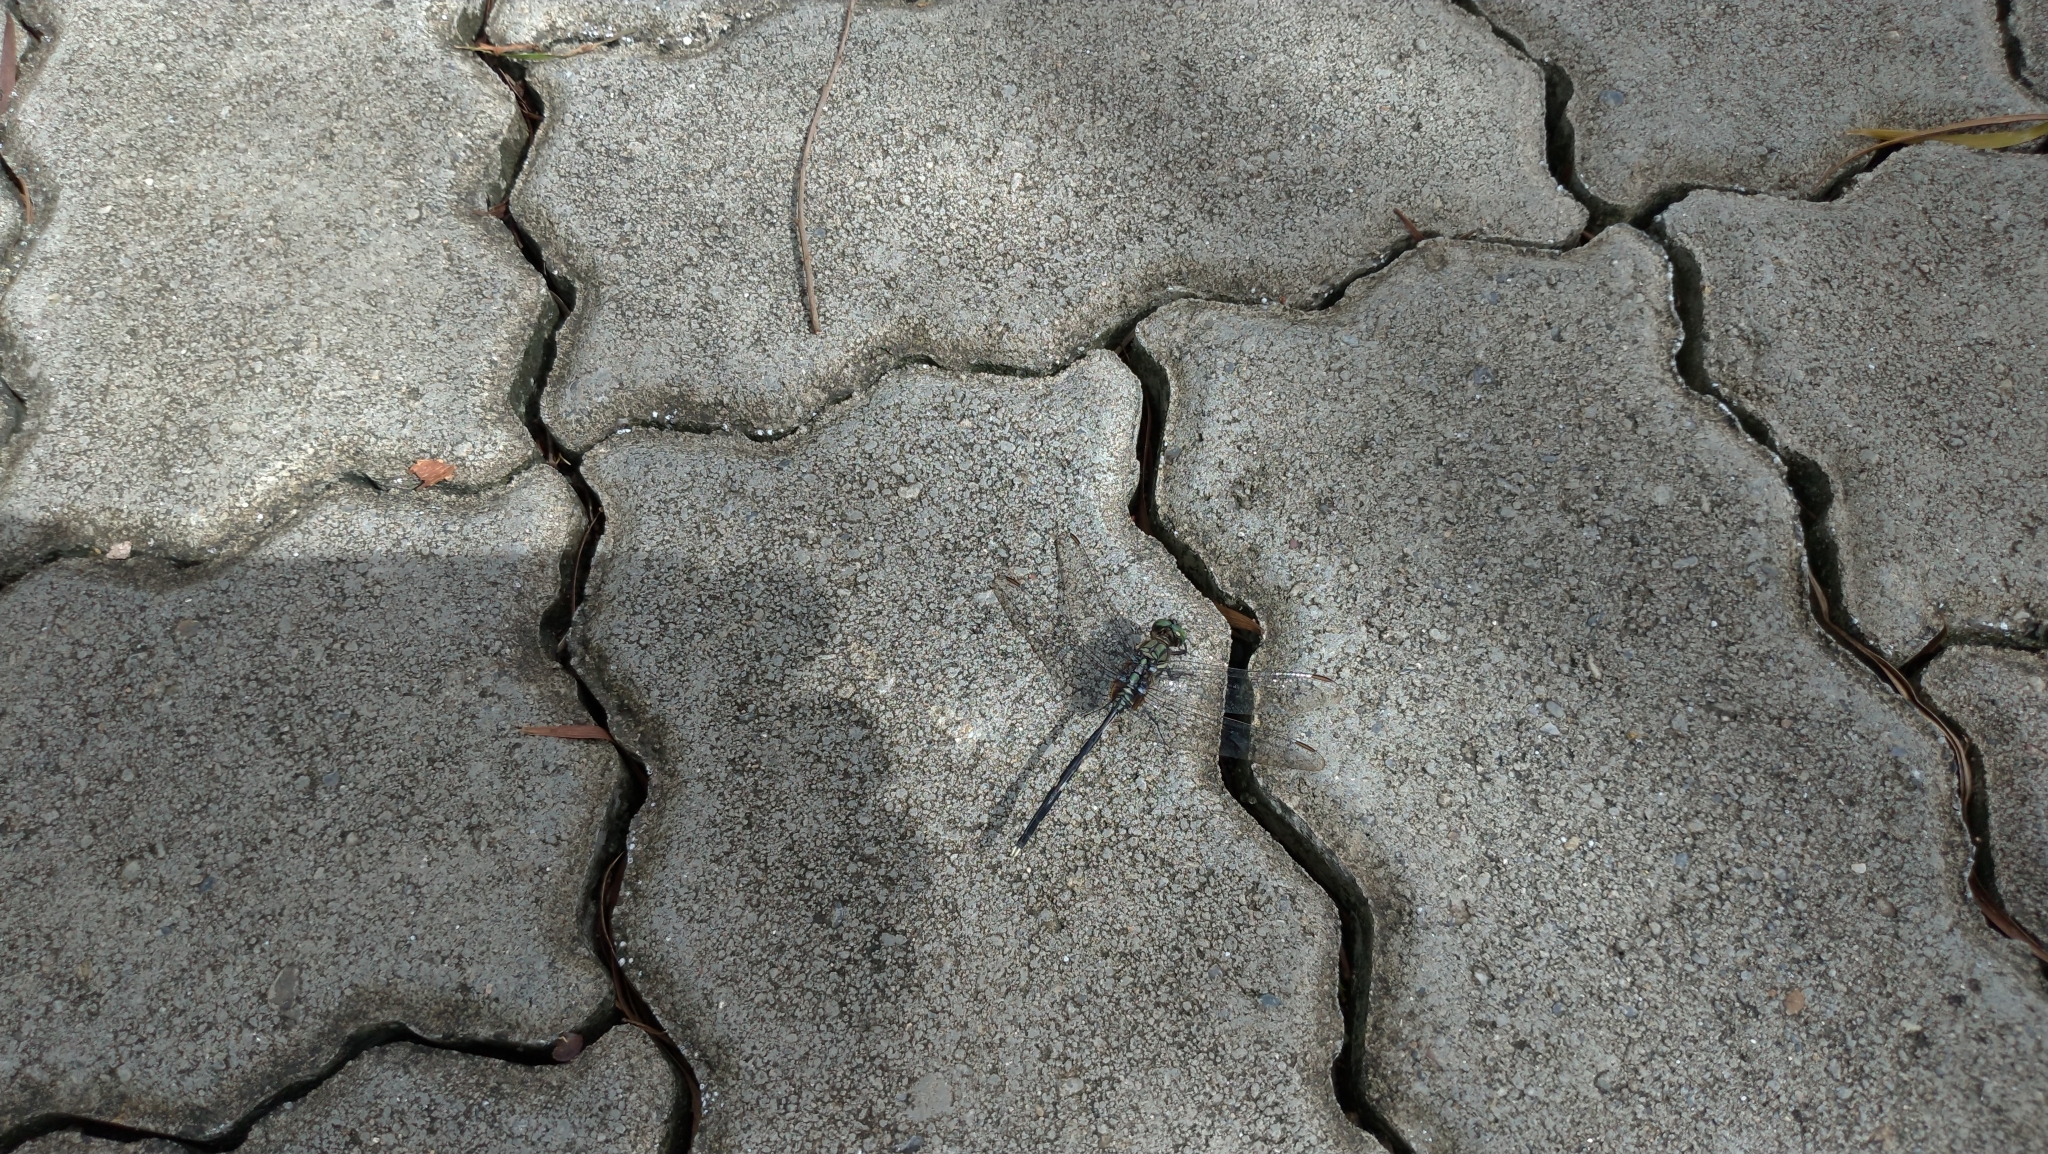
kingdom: Animalia
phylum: Arthropoda
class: Insecta
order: Odonata
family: Libellulidae
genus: Orthetrum
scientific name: Orthetrum sabina
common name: Slender skimmer
